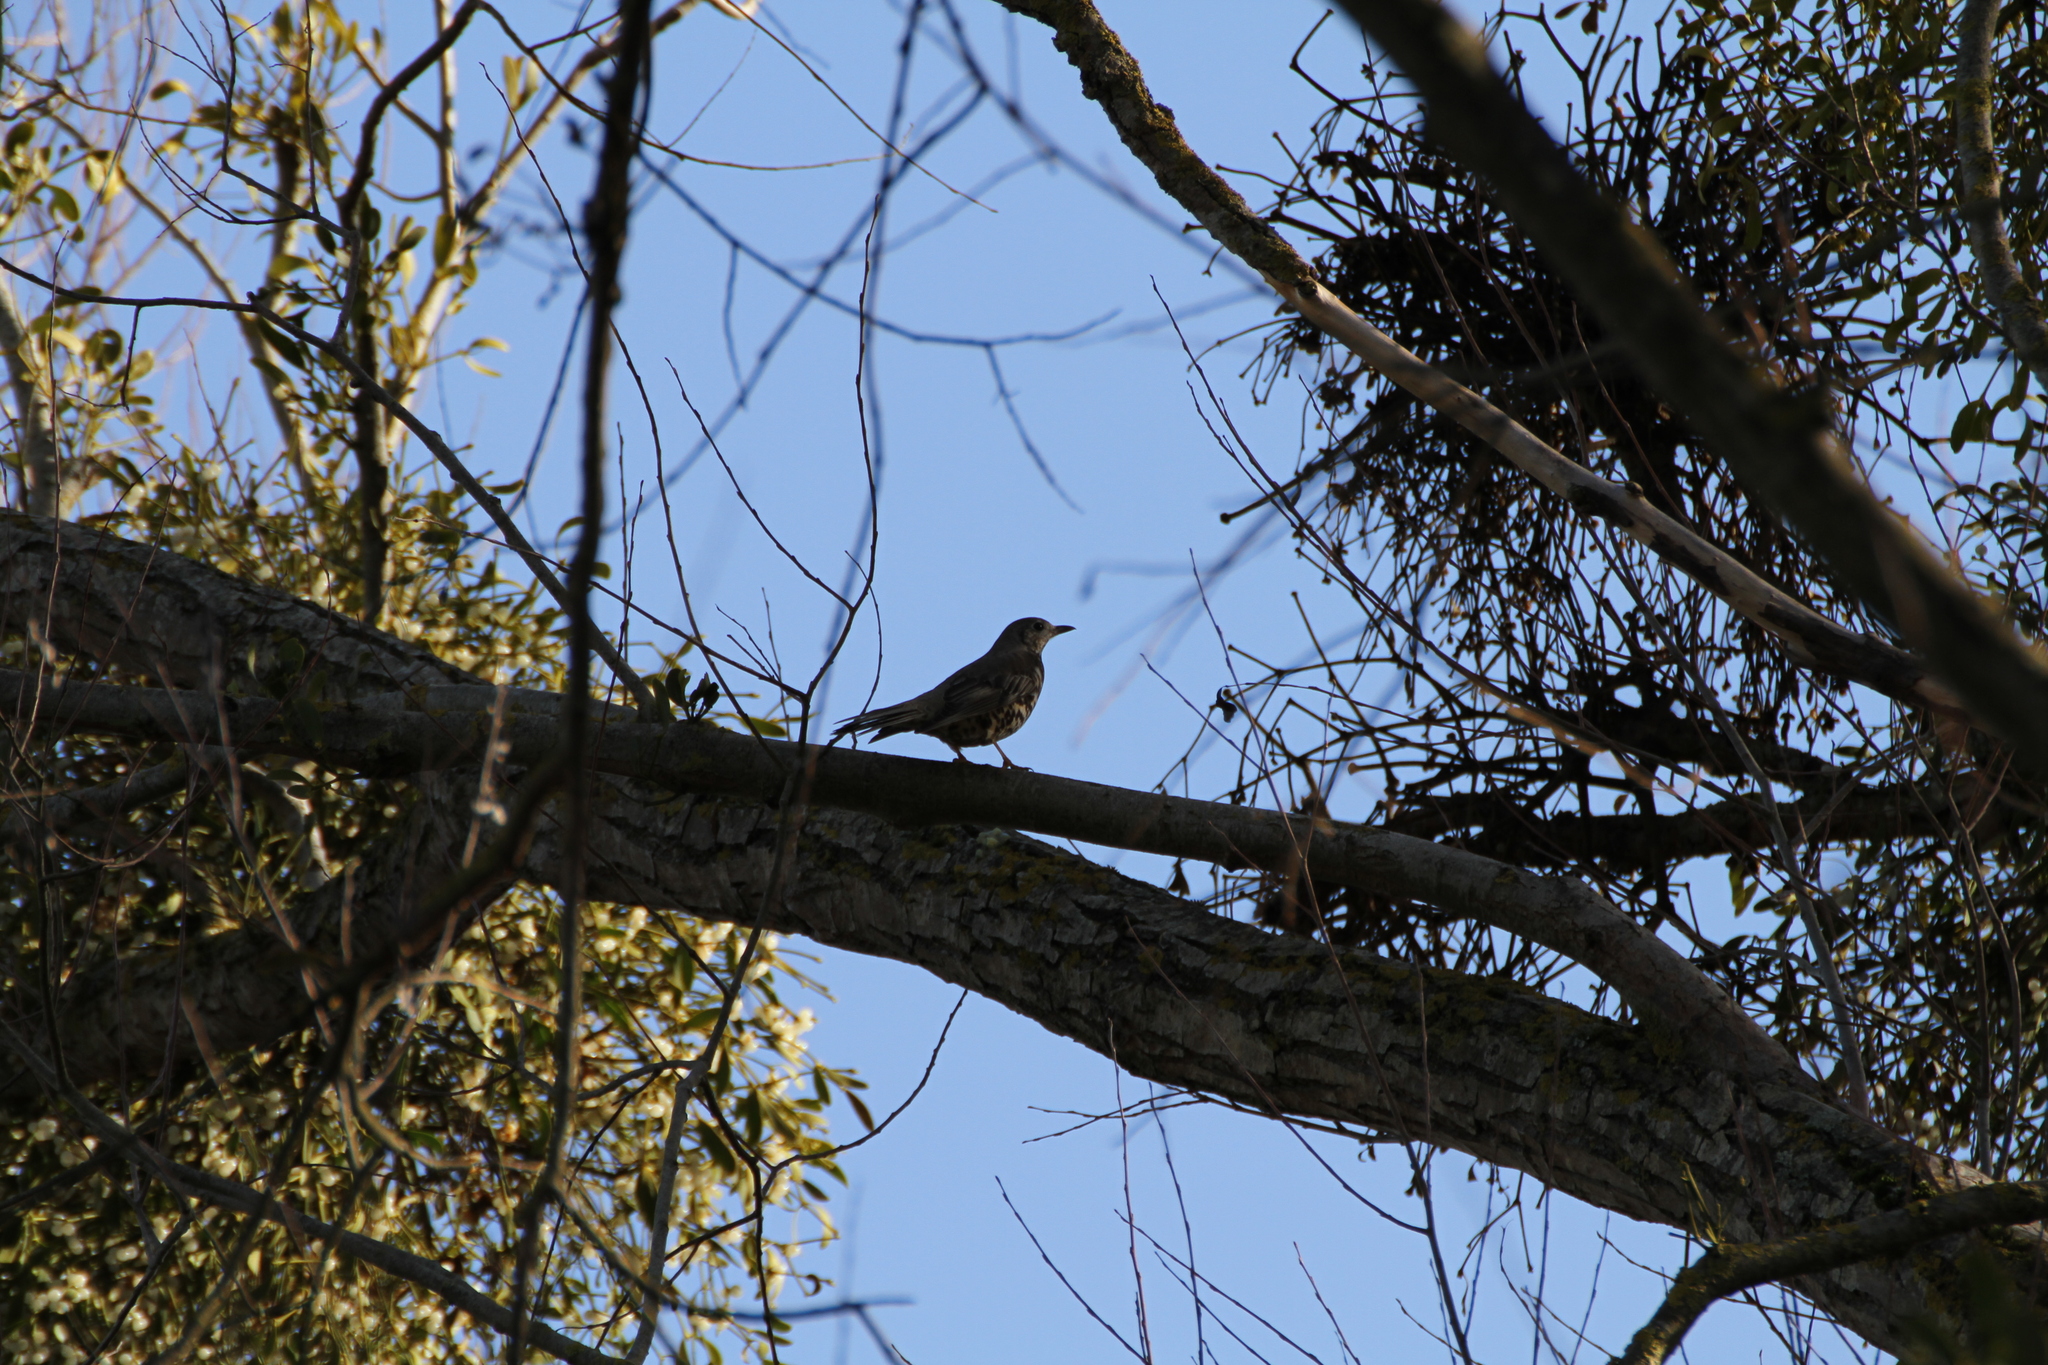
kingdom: Animalia
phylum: Chordata
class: Aves
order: Passeriformes
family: Turdidae
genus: Turdus
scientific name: Turdus viscivorus
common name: Mistle thrush
